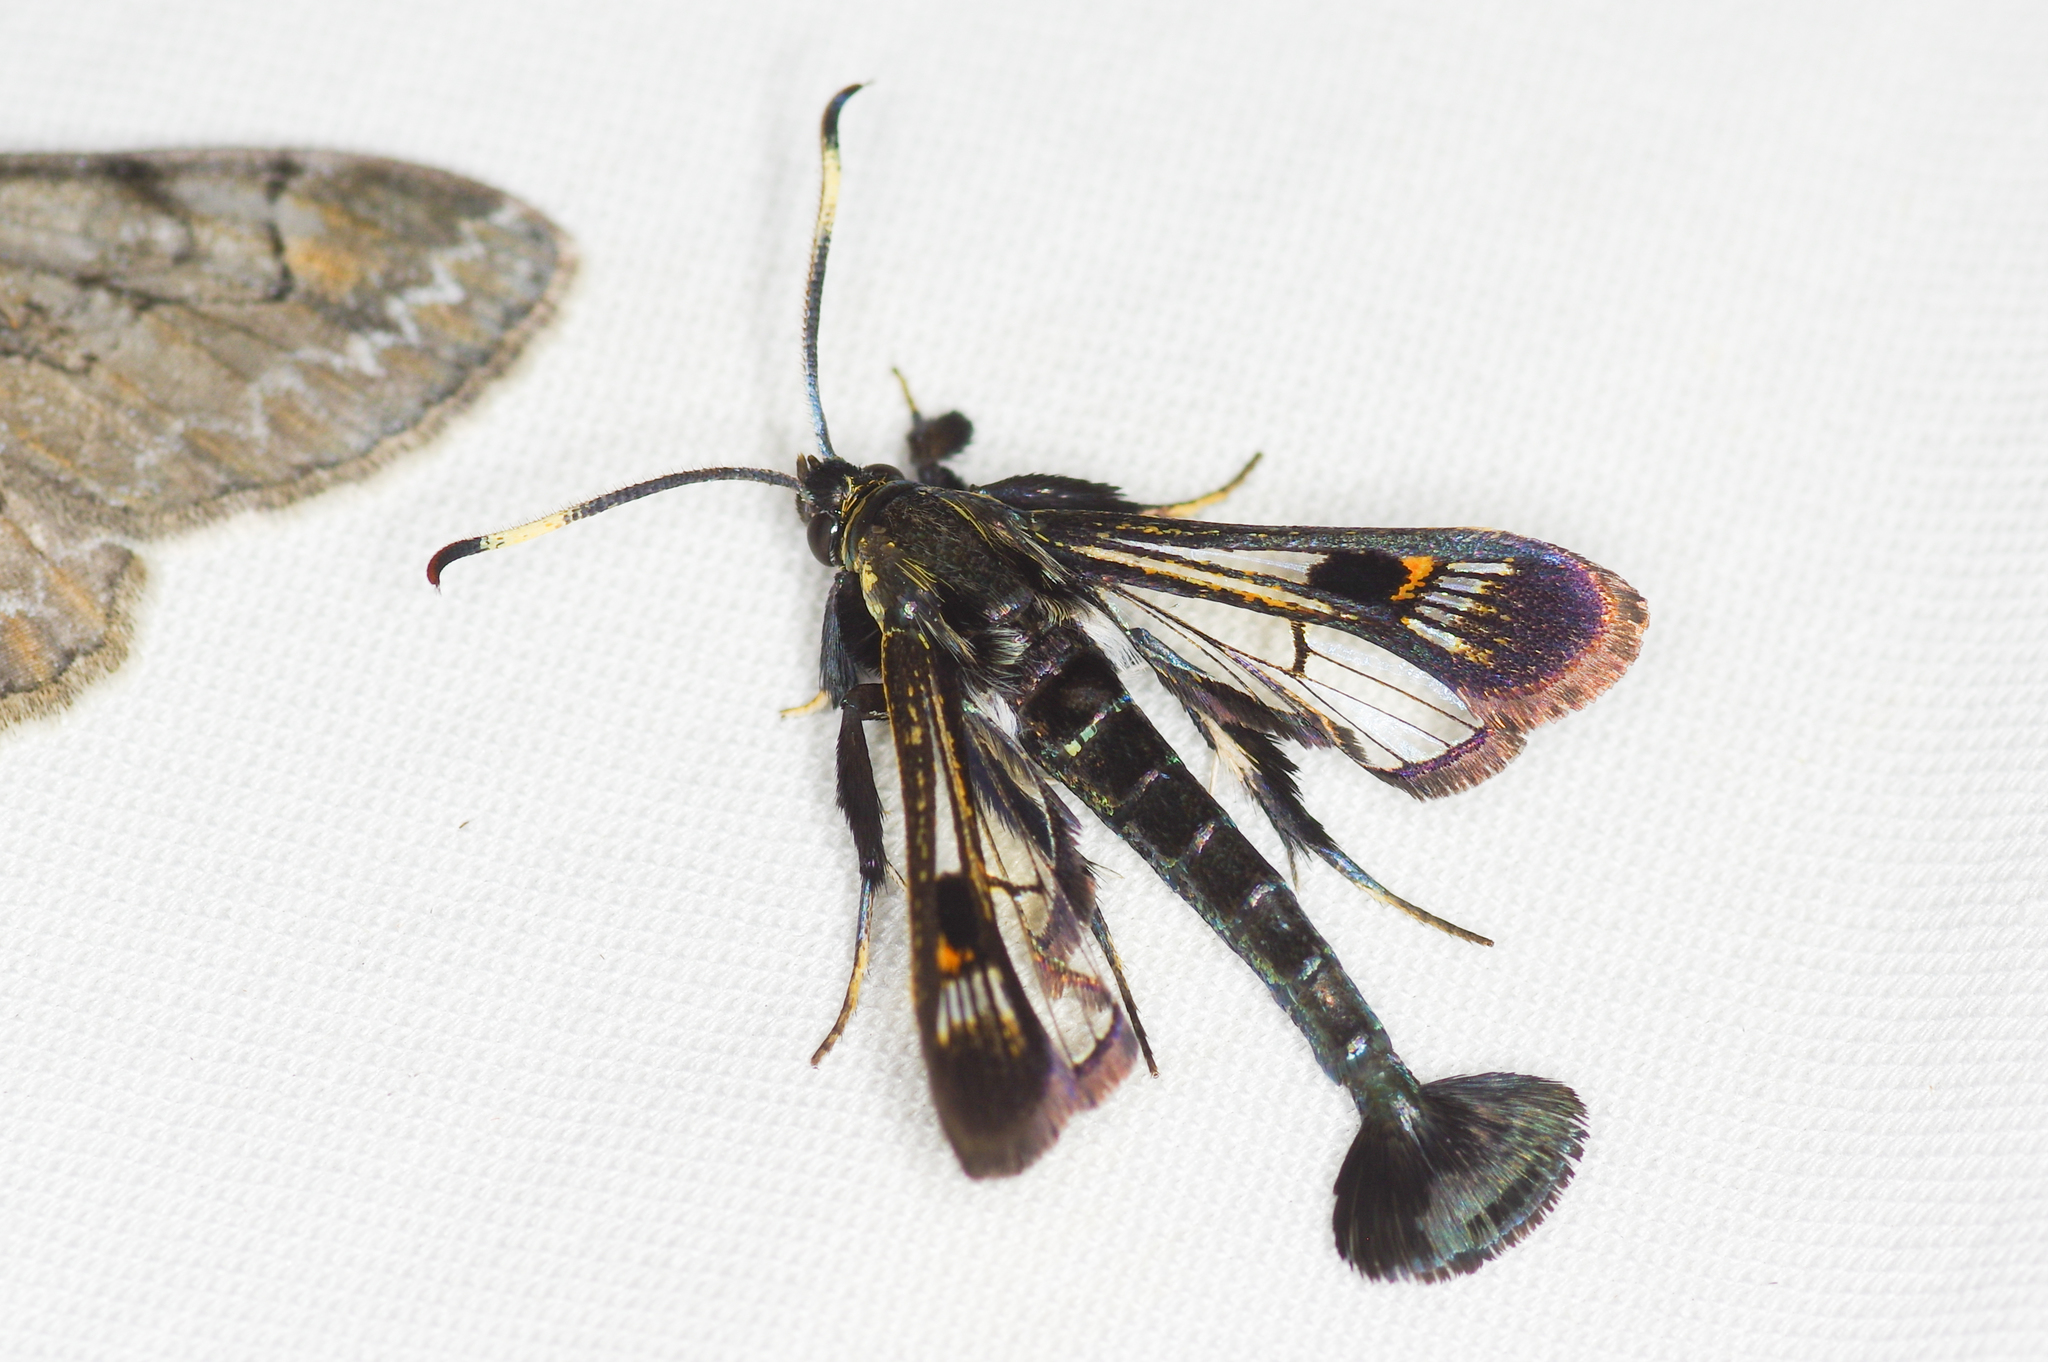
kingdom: Animalia
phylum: Arthropoda
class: Insecta
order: Lepidoptera
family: Sesiidae
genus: Albuna
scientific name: Albuna fraxini
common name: Virginia creeper clearwing
